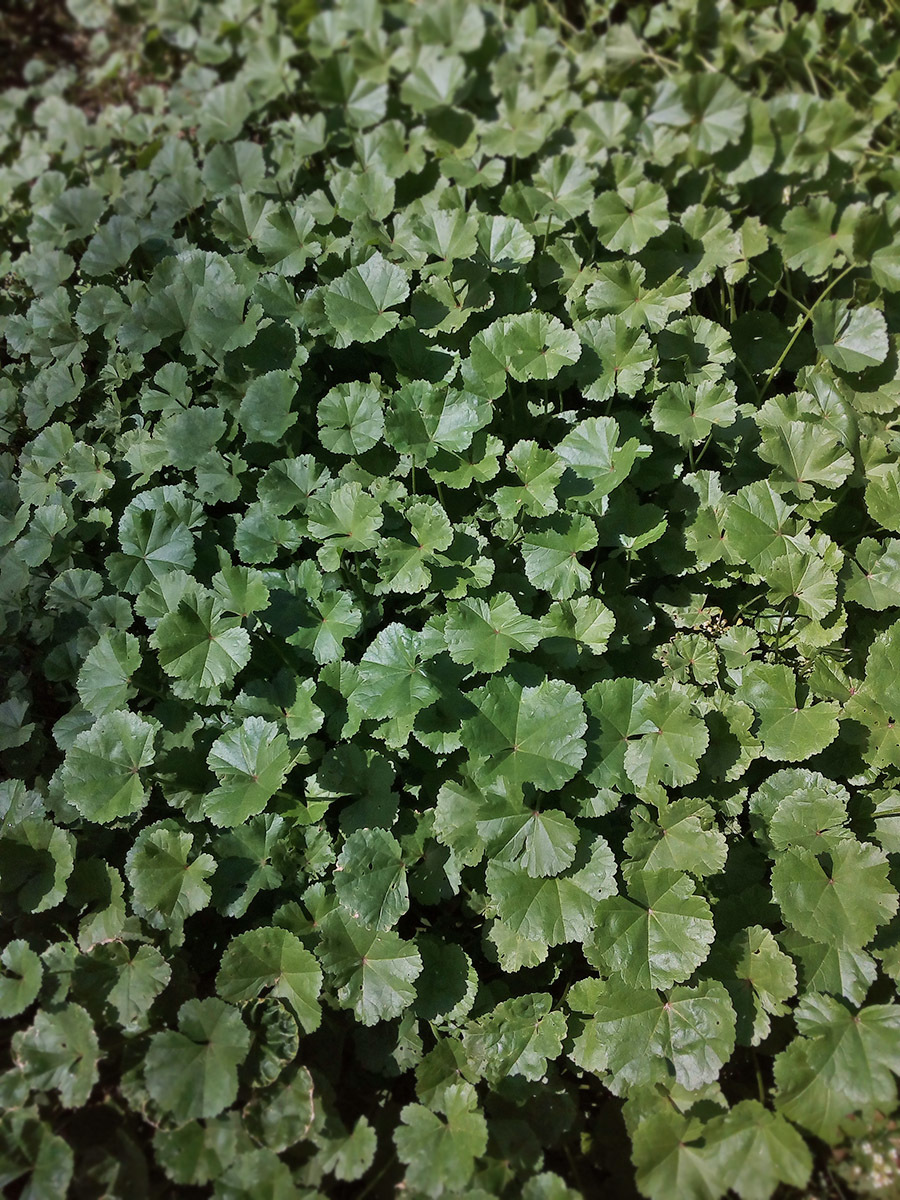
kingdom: Plantae
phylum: Tracheophyta
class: Magnoliopsida
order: Malvales
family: Malvaceae
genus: Malva
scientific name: Malva pusilla
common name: Small mallow
